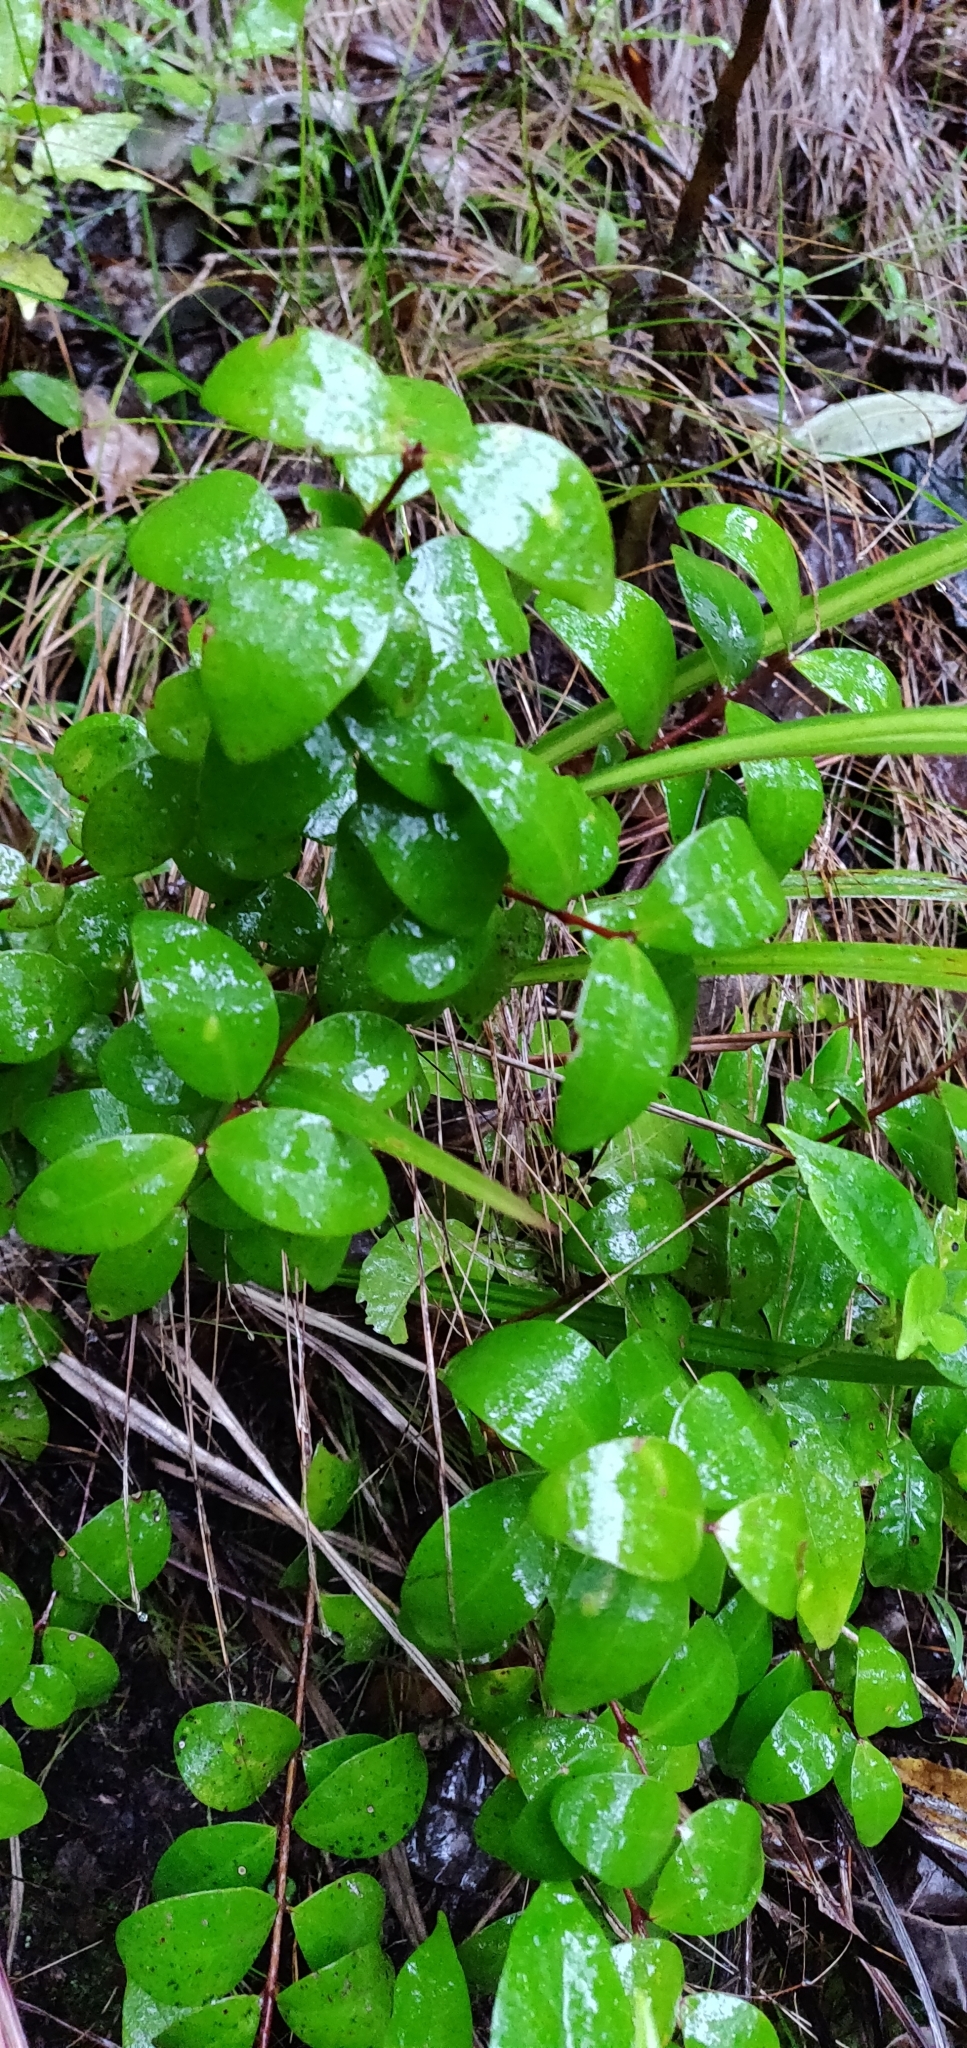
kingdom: Plantae
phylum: Tracheophyta
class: Magnoliopsida
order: Myrtales
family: Myrtaceae
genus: Metrosideros
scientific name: Metrosideros fulgens
